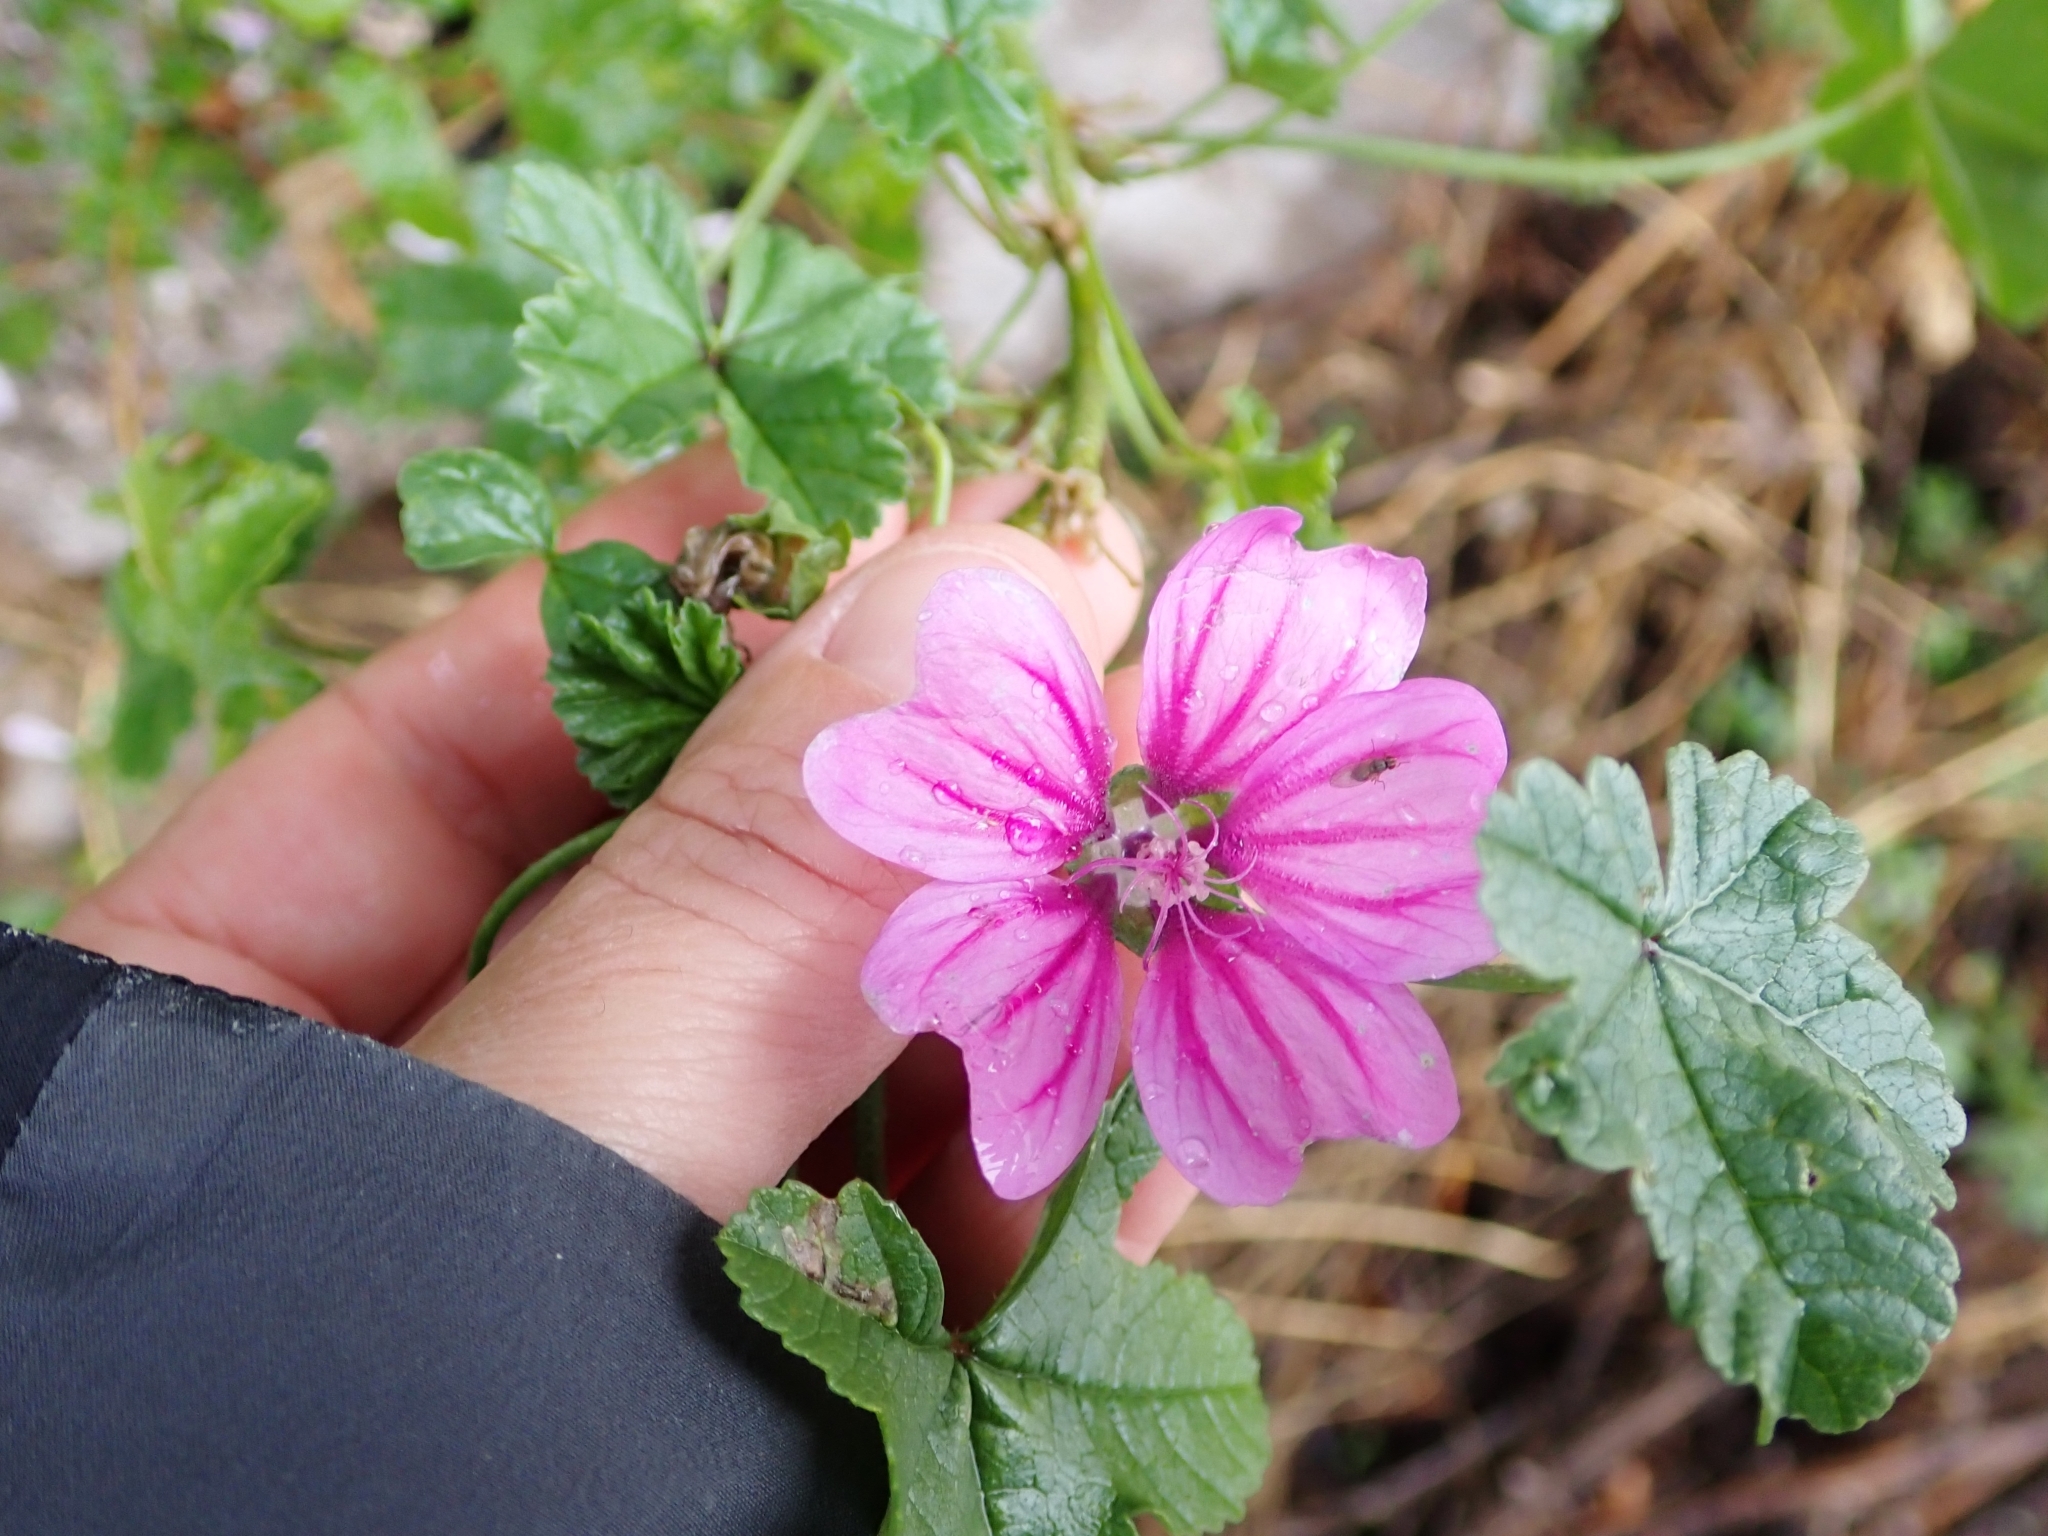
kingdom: Plantae
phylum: Tracheophyta
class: Magnoliopsida
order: Malvales
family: Malvaceae
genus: Malva
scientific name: Malva sylvestris
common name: Common mallow
